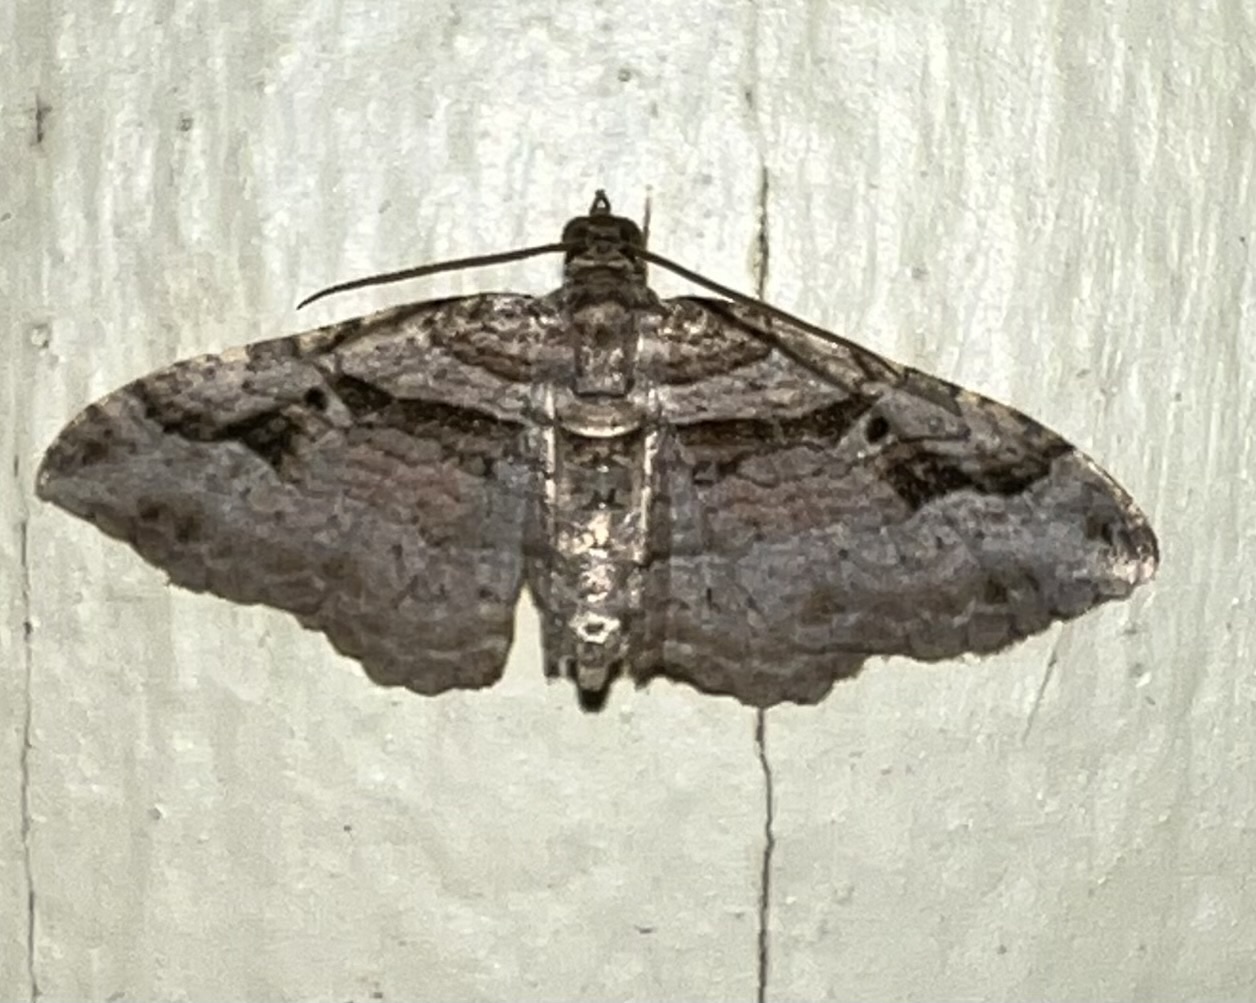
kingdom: Animalia
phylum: Arthropoda
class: Insecta
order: Lepidoptera
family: Geometridae
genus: Costaconvexa
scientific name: Costaconvexa centrostrigaria
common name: Bent-line carpet
